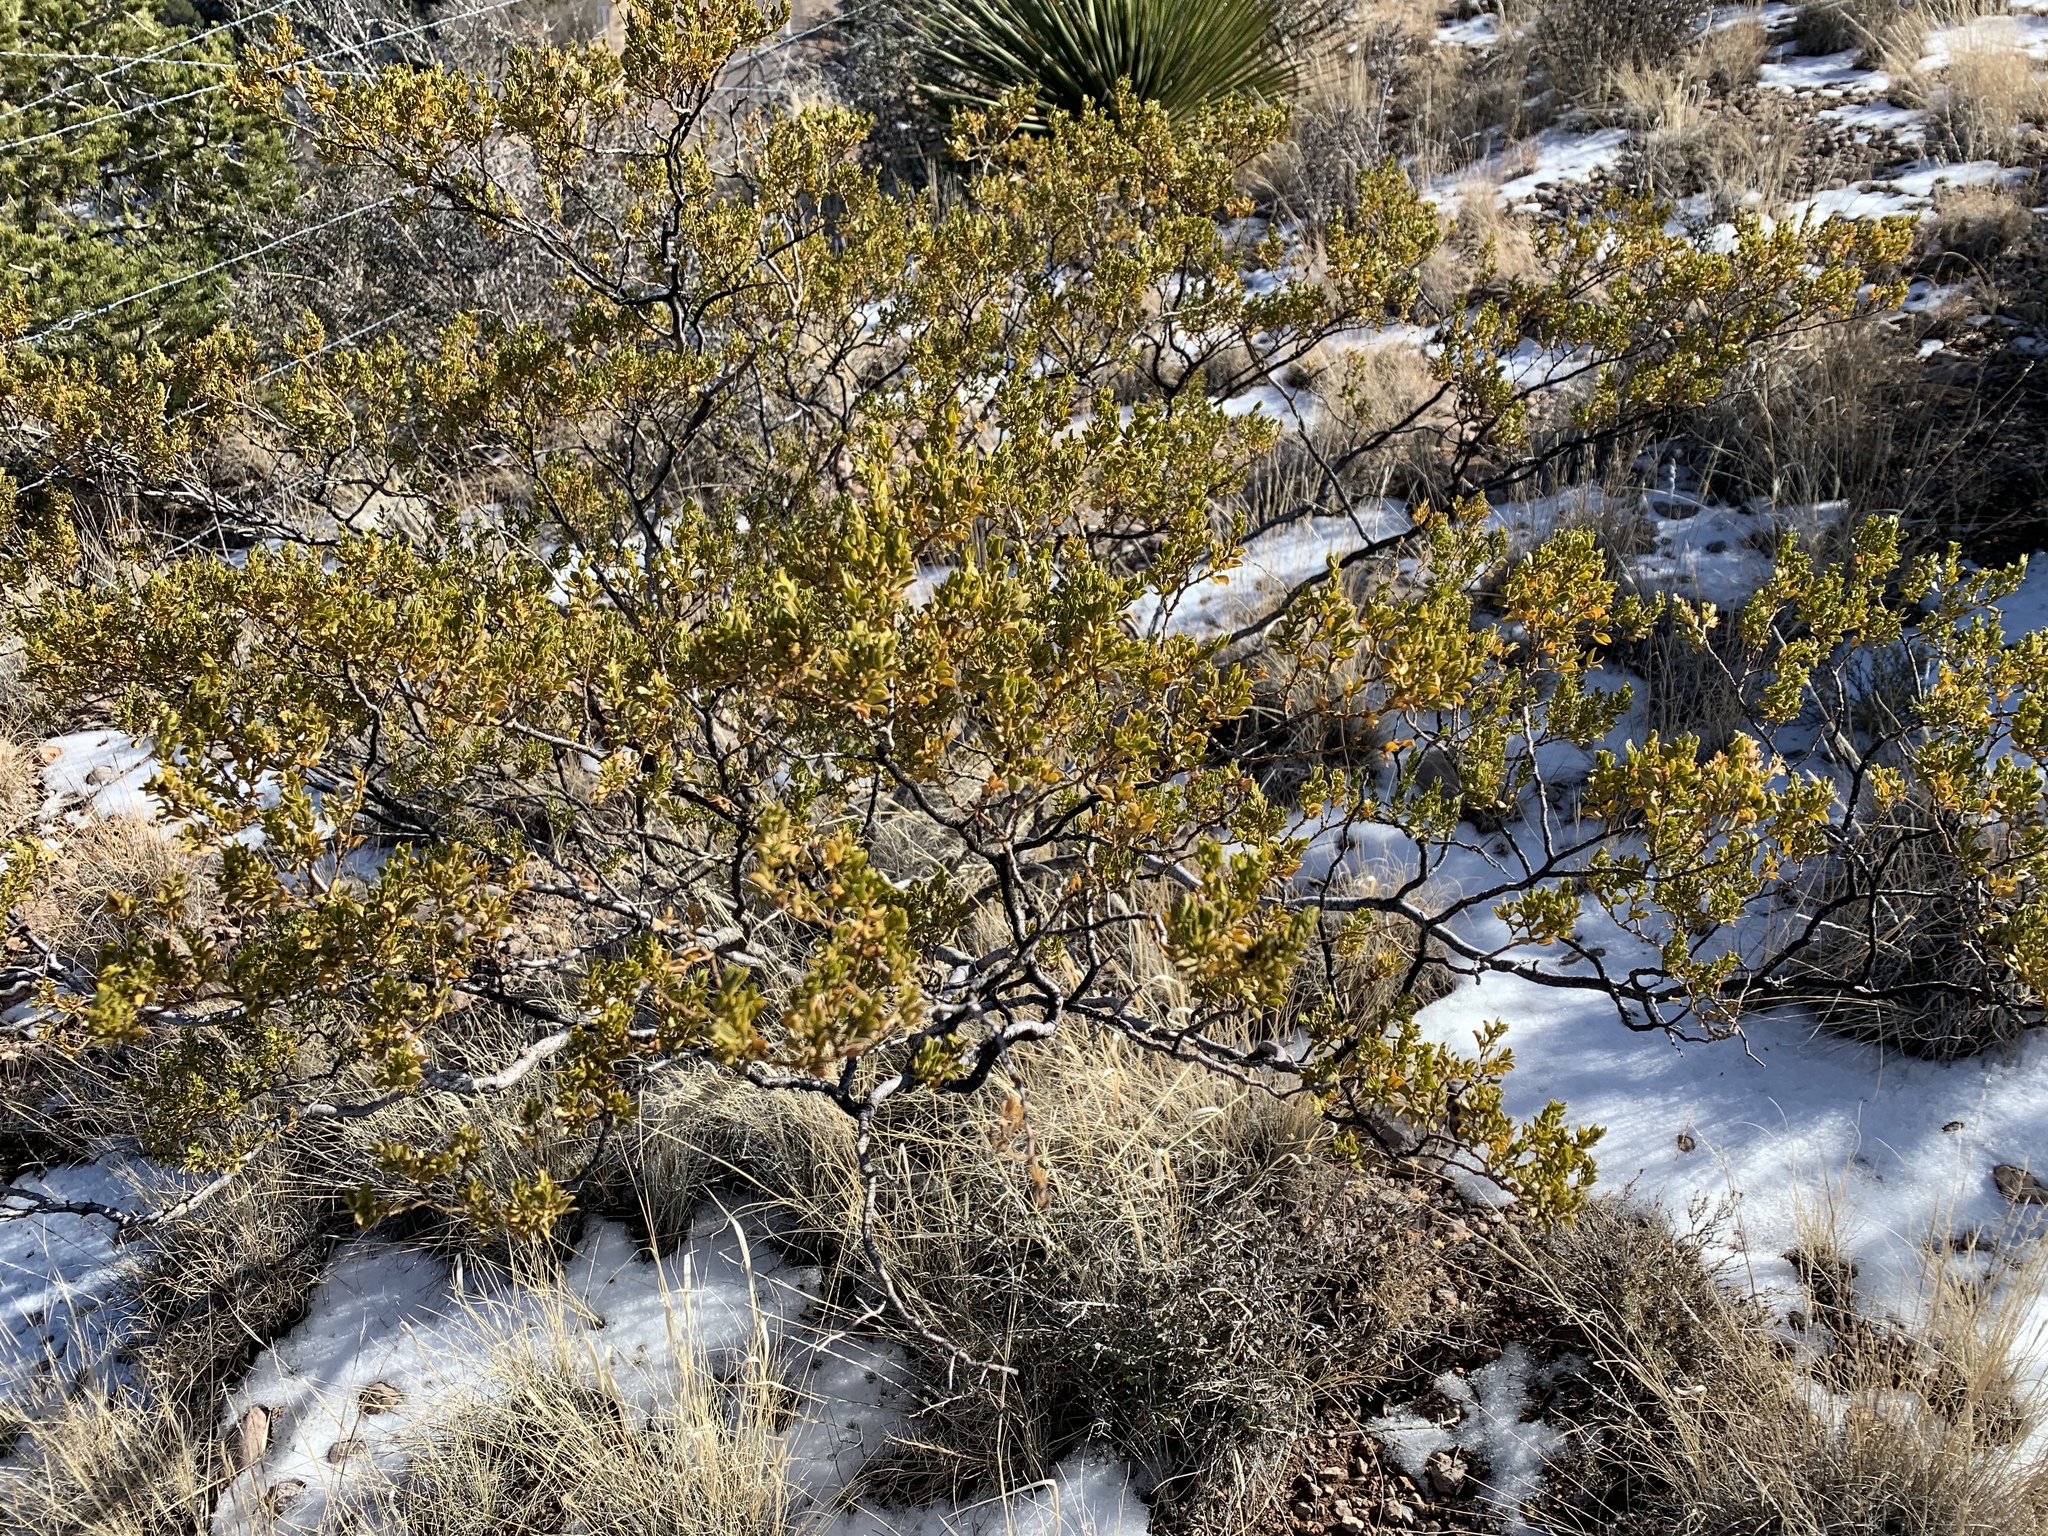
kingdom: Plantae
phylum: Tracheophyta
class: Magnoliopsida
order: Zygophyllales
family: Zygophyllaceae
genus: Larrea
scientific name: Larrea tridentata
